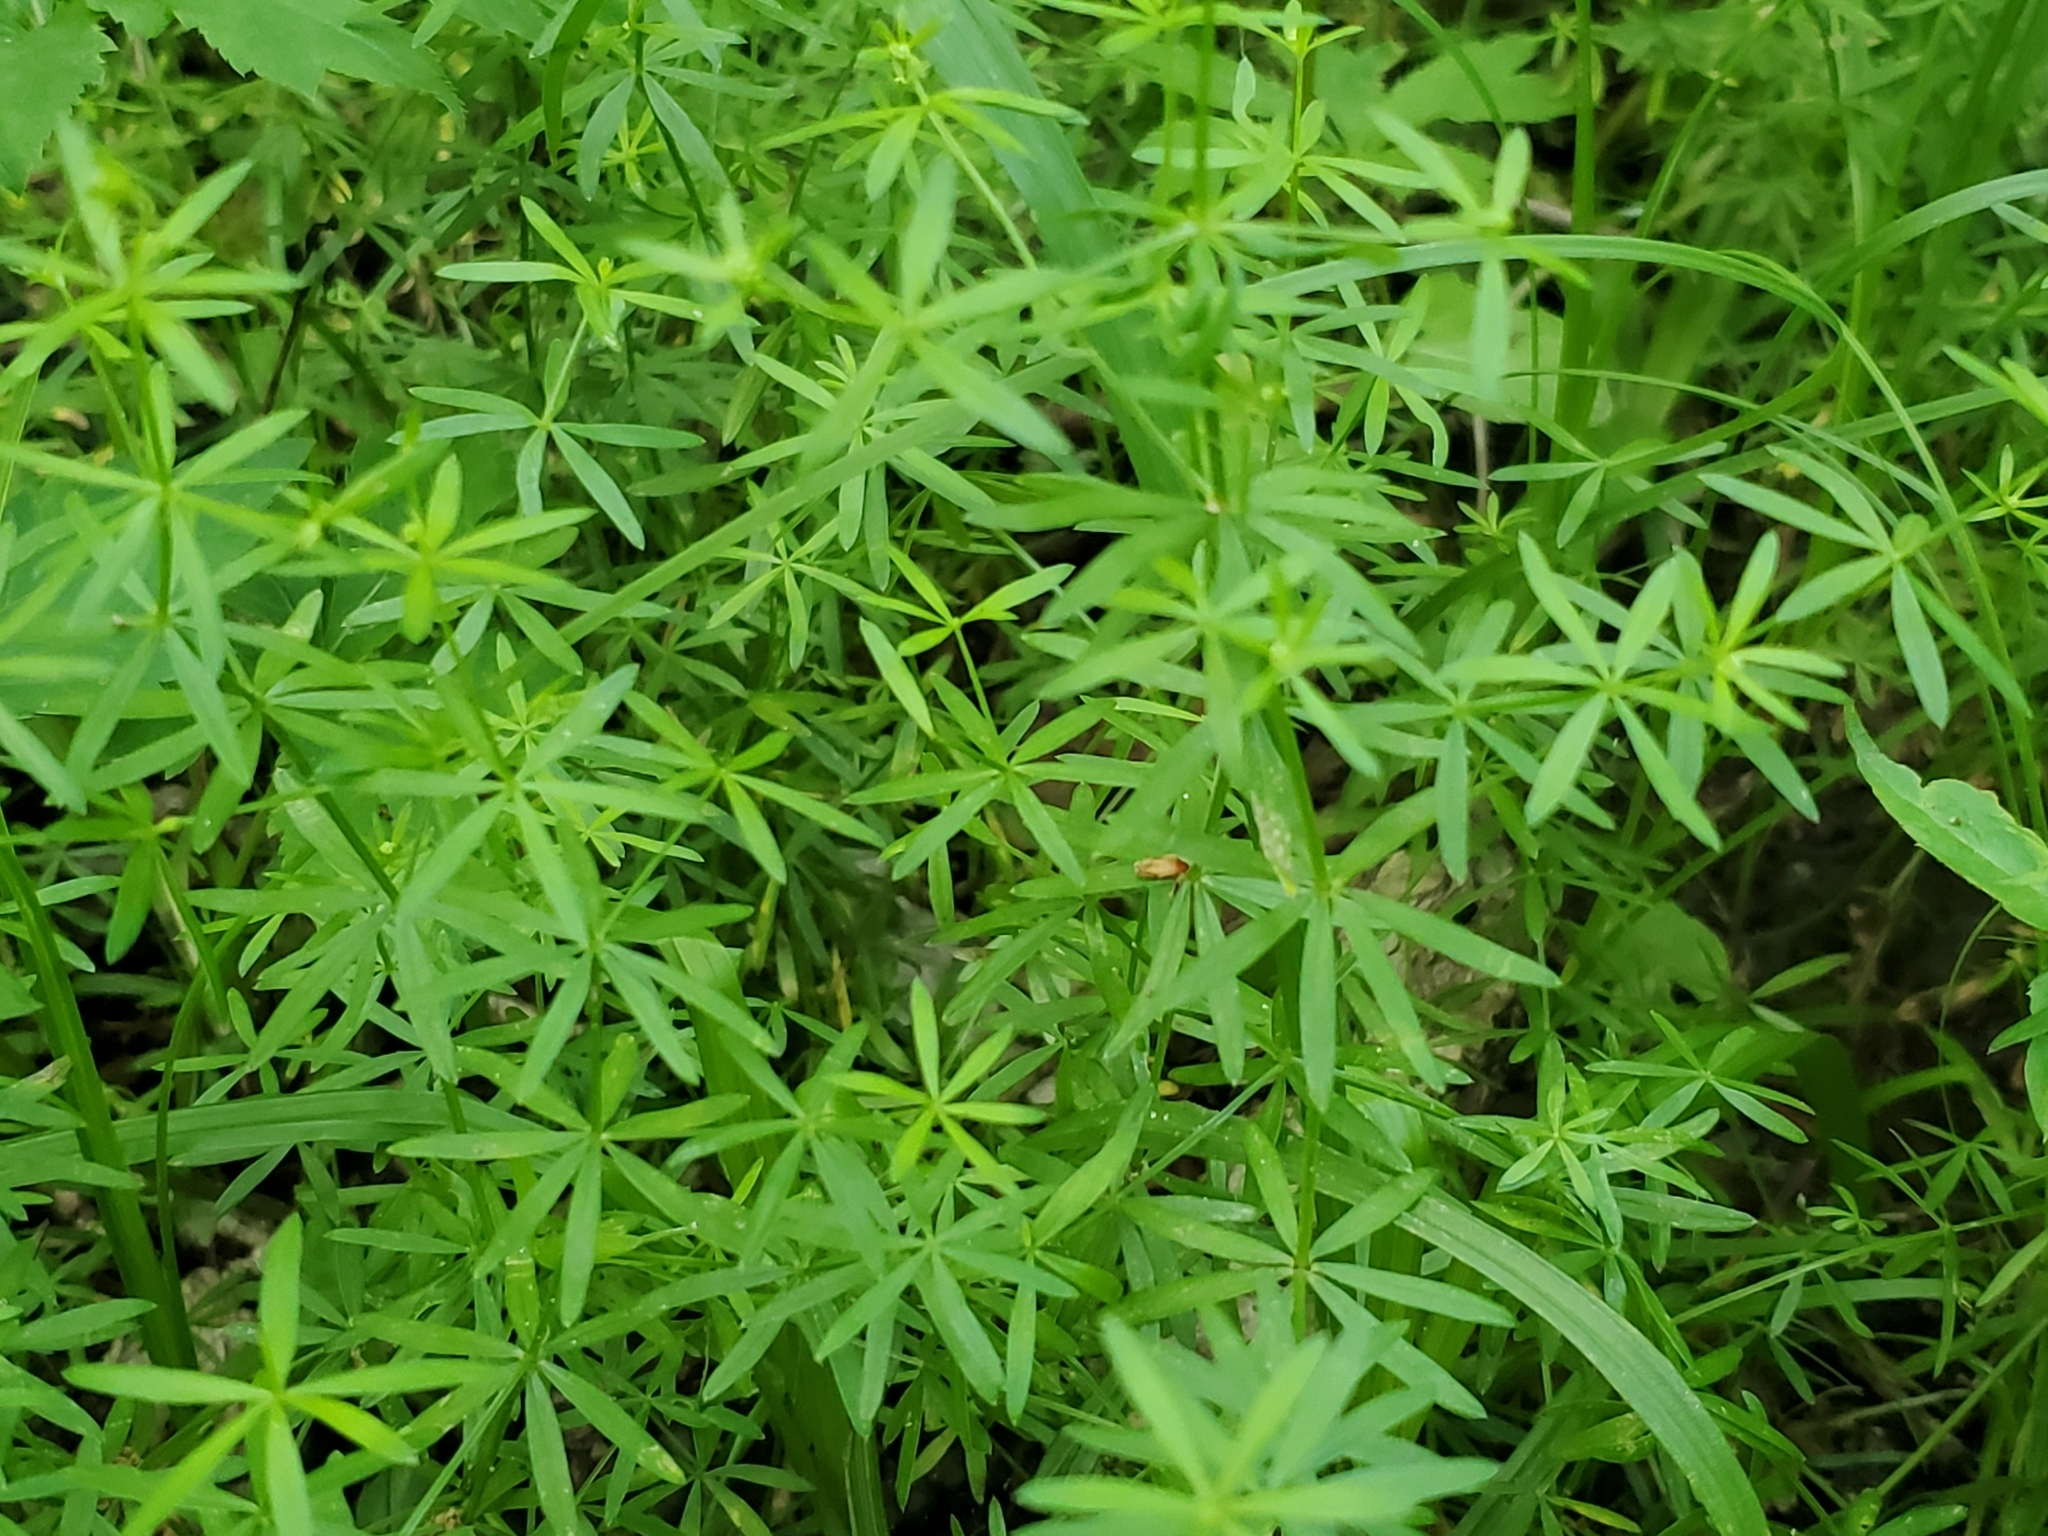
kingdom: Plantae
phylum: Tracheophyta
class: Magnoliopsida
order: Gentianales
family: Rubiaceae
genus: Galium
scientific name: Galium concinnum
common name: Shining bedstraw
